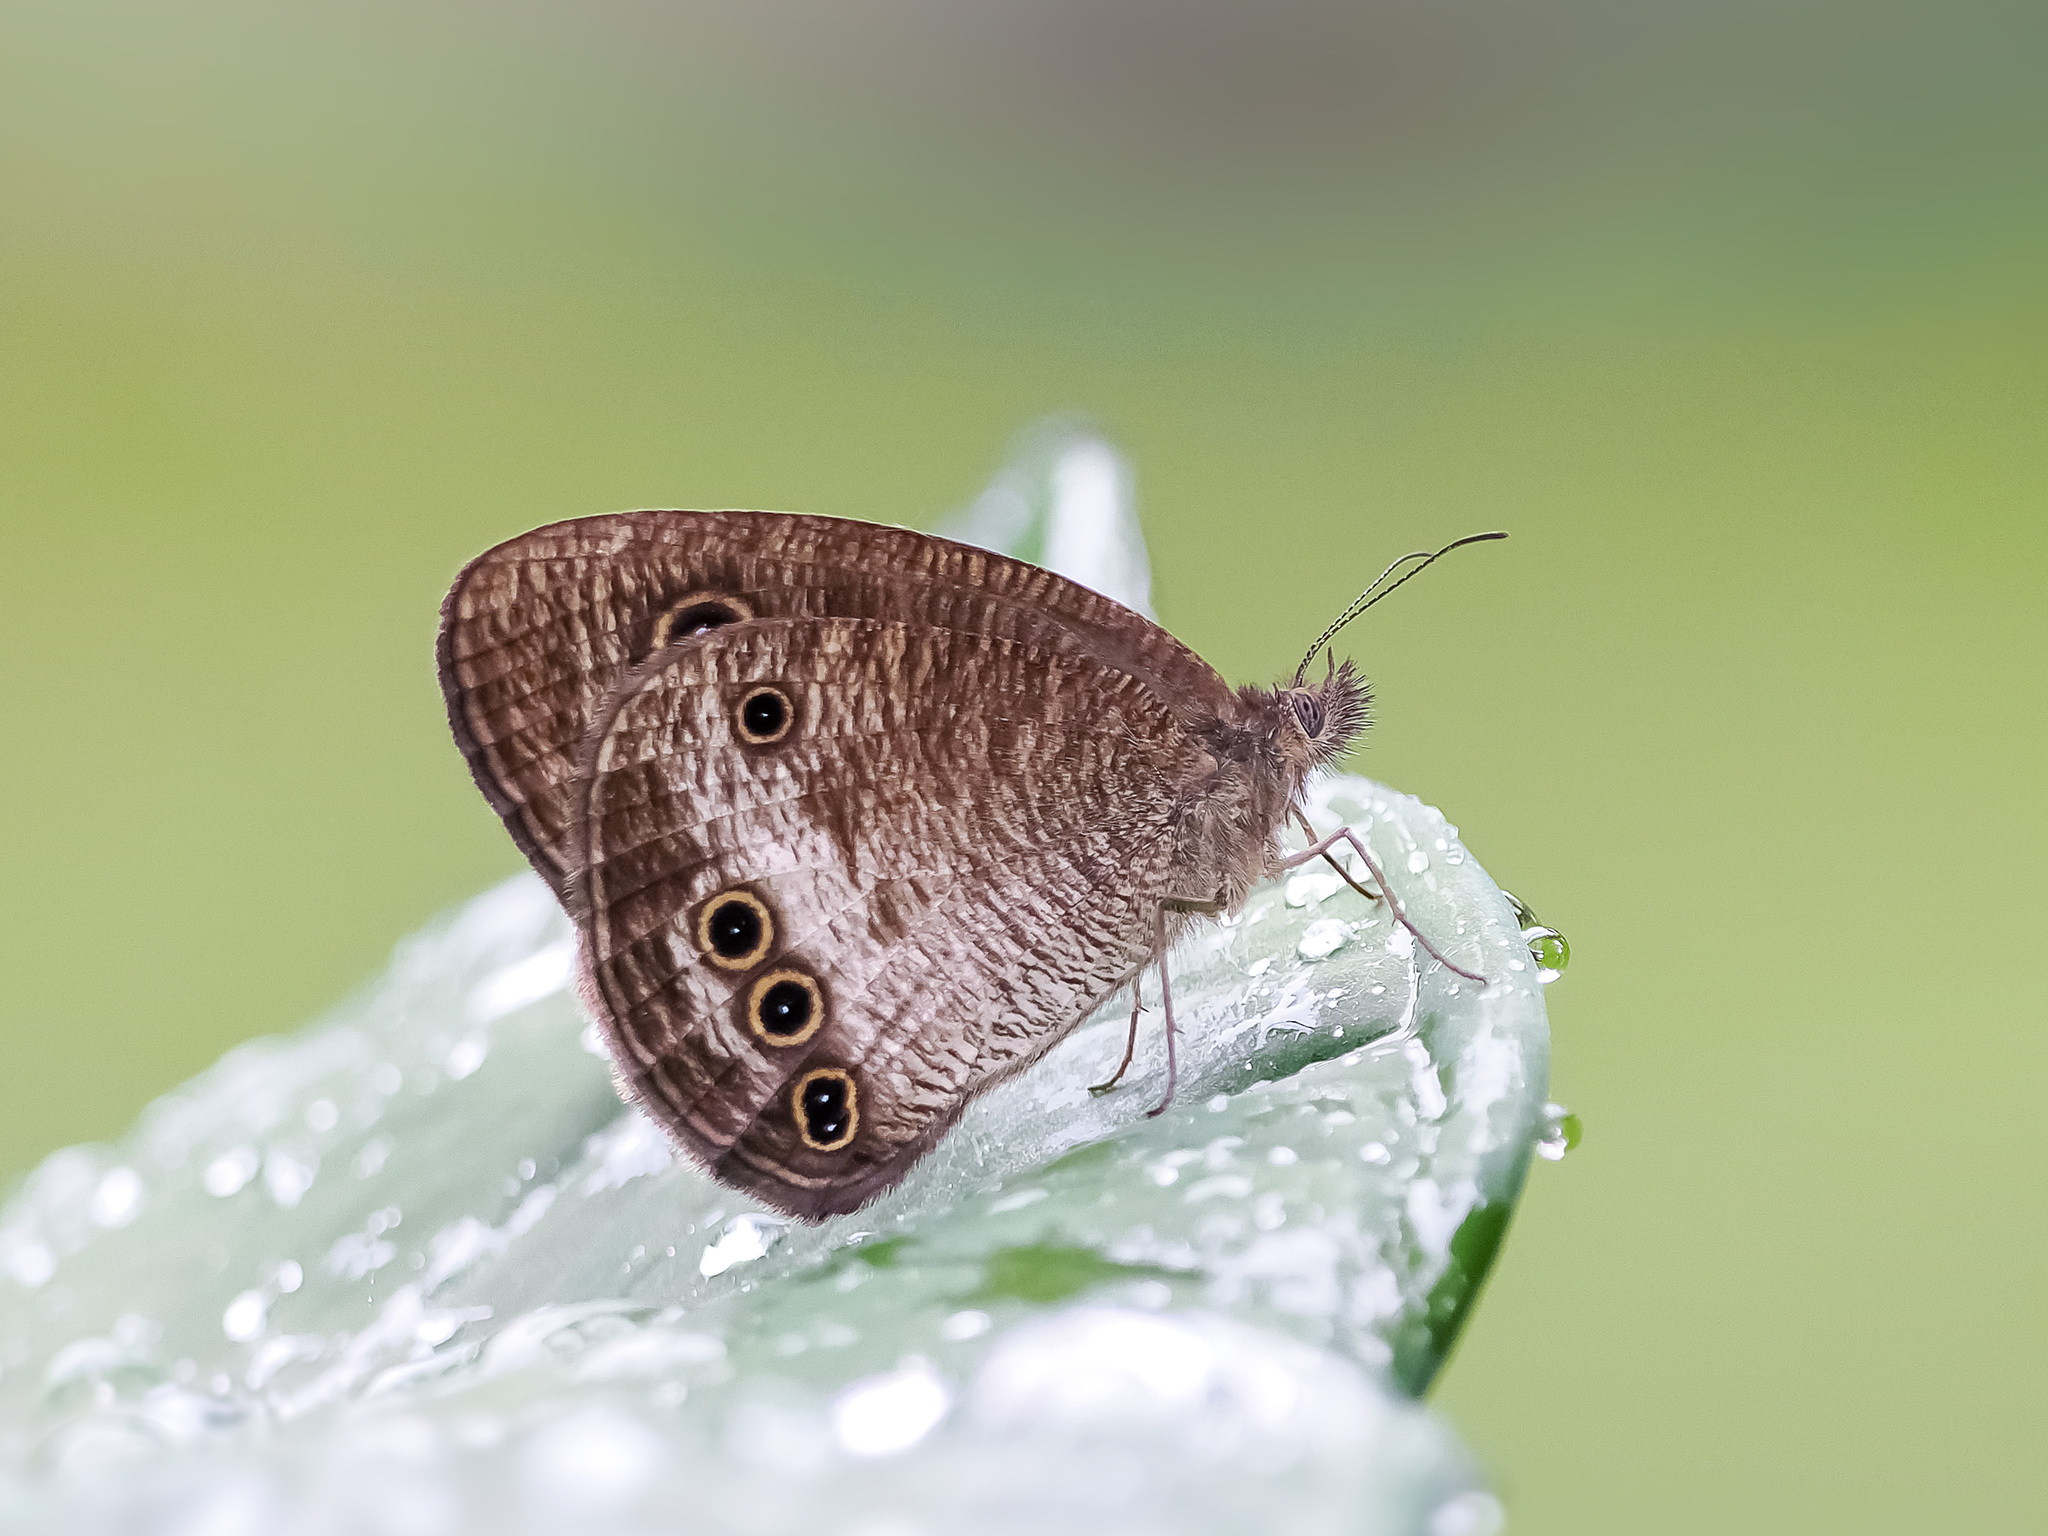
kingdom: Animalia
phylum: Arthropoda
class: Insecta
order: Lepidoptera
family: Nymphalidae
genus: Ypthima
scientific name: Ypthima gawalisi
